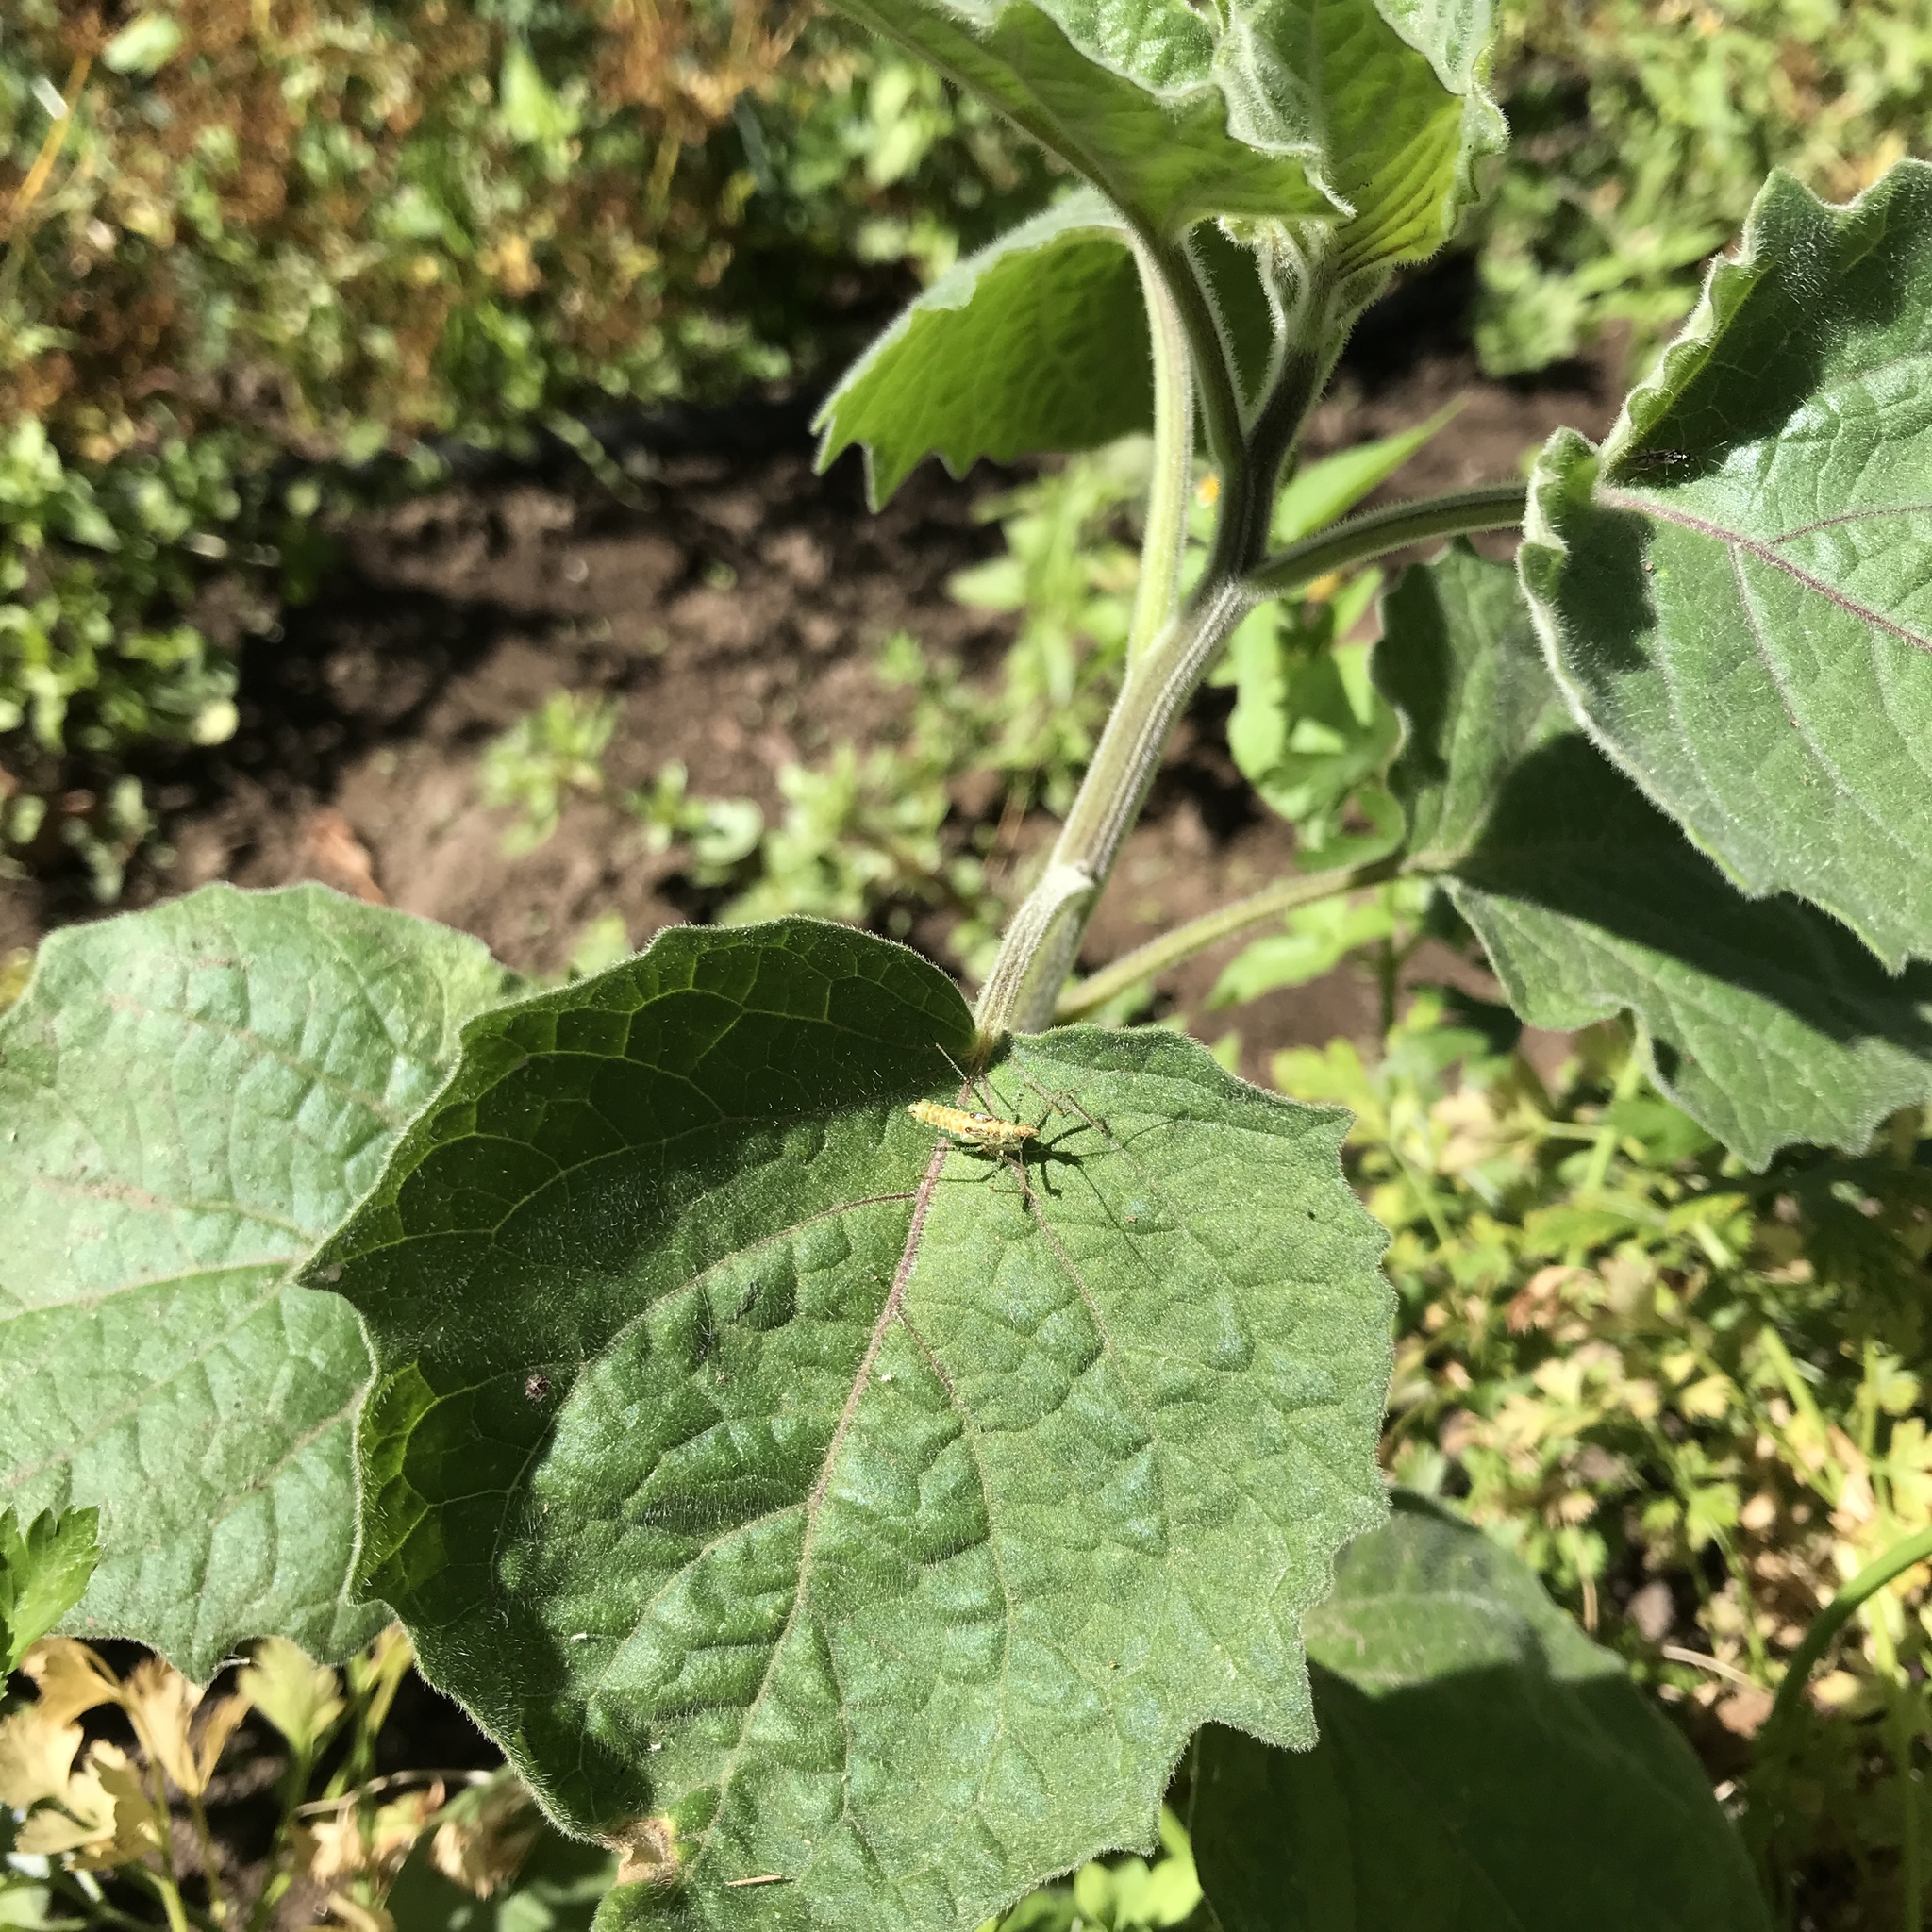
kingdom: Animalia
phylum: Arthropoda
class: Insecta
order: Hemiptera
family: Reduviidae
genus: Zelus
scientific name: Zelus renardii
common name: Assassin bug
